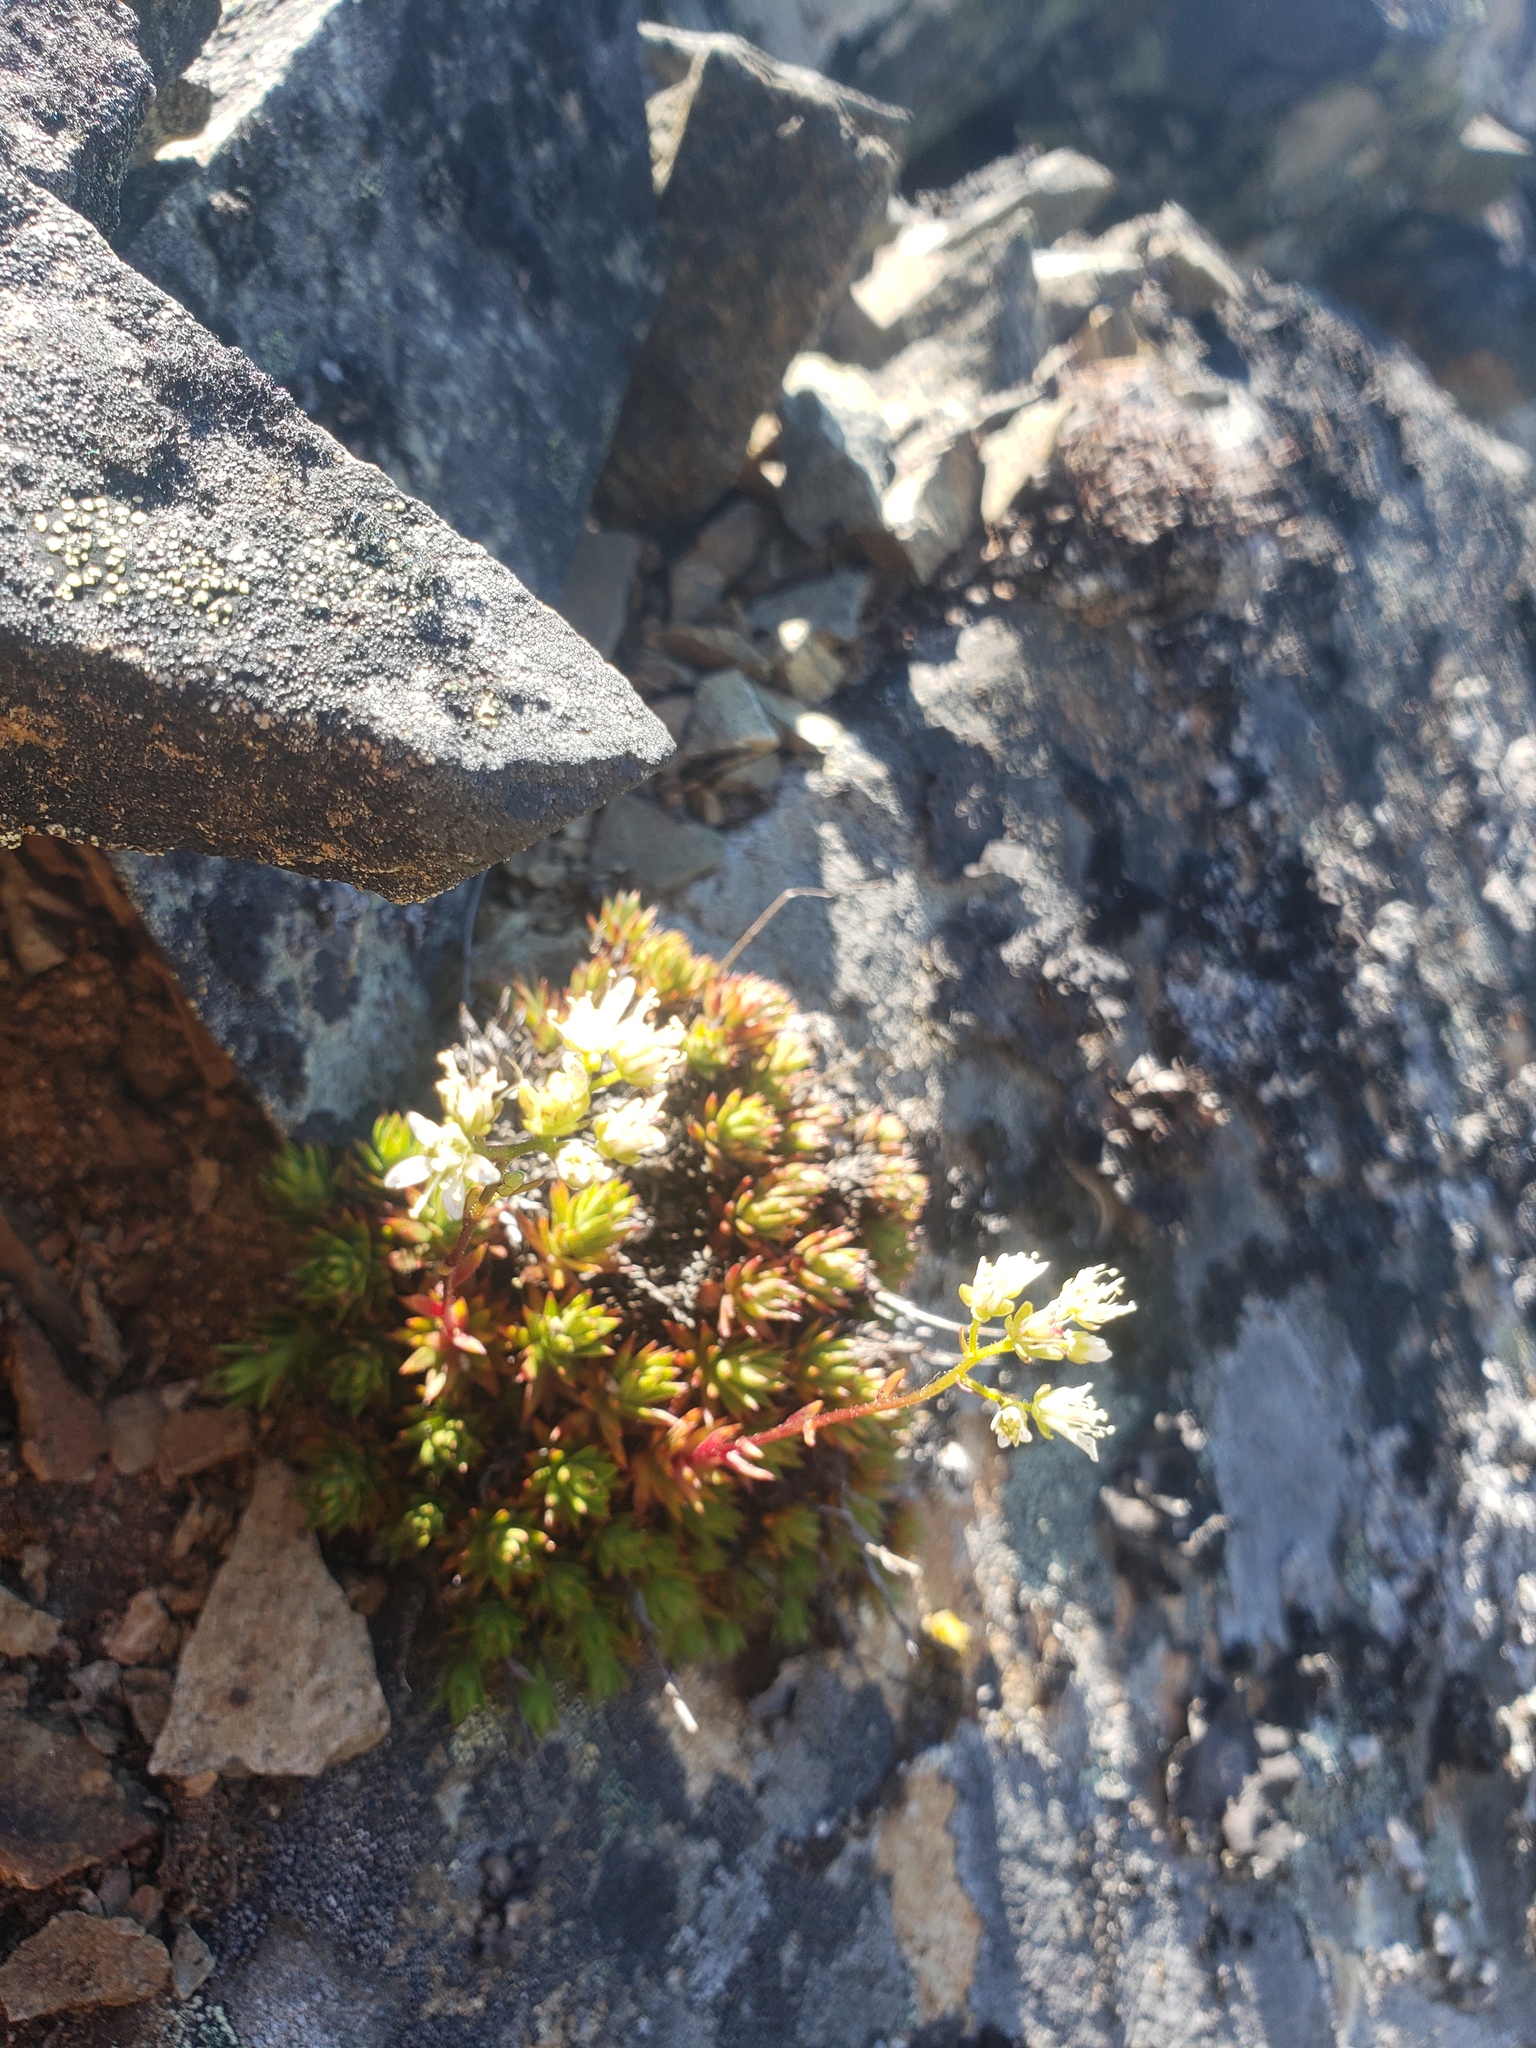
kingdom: Plantae
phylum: Tracheophyta
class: Magnoliopsida
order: Saxifragales
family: Saxifragaceae
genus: Saxifraga
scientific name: Saxifraga bronchialis
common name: Matted saxifrage
